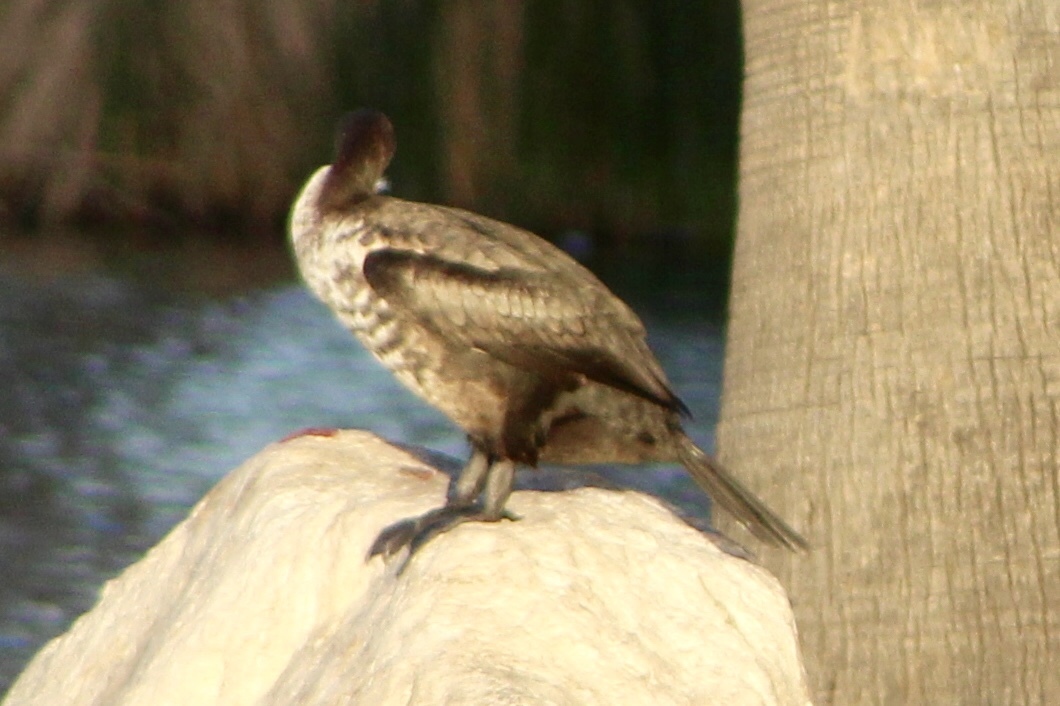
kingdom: Animalia
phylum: Chordata
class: Aves
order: Suliformes
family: Phalacrocoracidae
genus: Phalacrocorax
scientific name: Phalacrocorax auritus
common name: Double-crested cormorant
